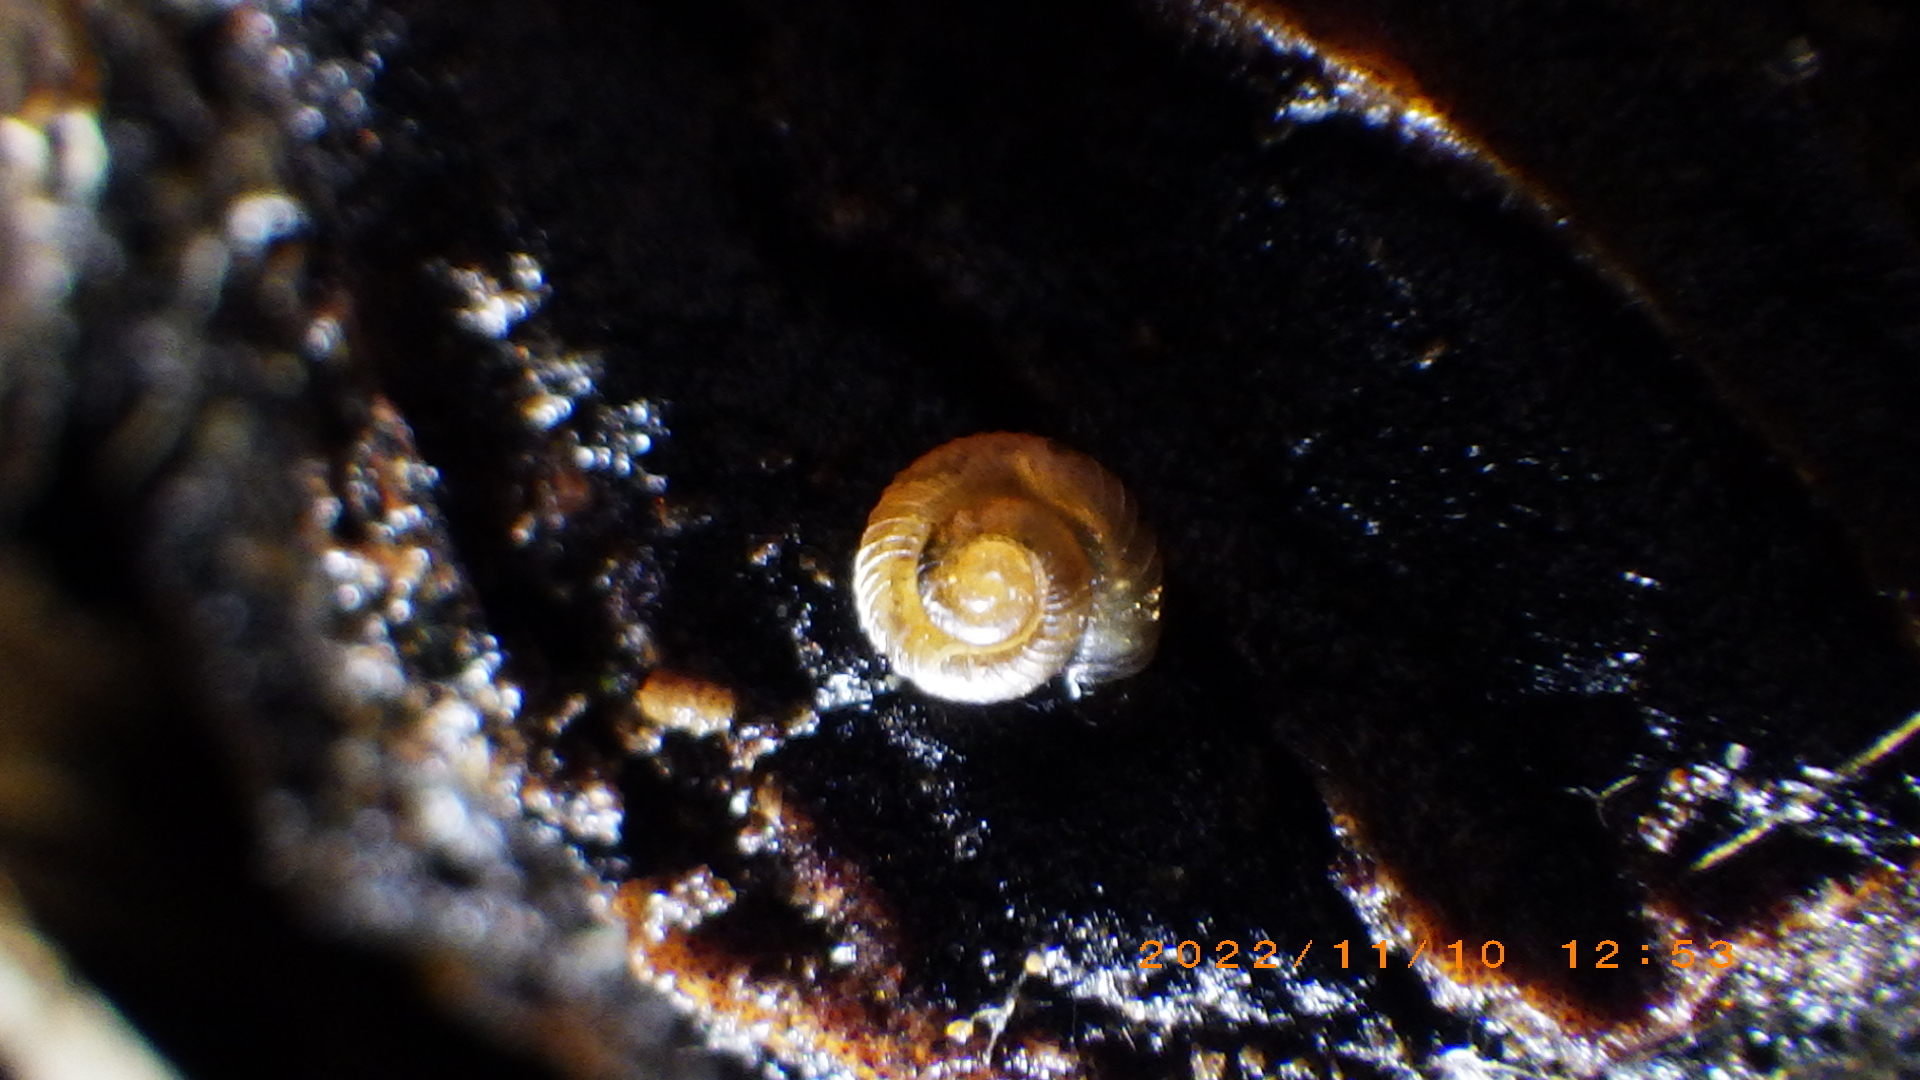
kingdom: Animalia
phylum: Mollusca
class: Gastropoda
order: Stylommatophora
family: Punctidae
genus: Paralaoma
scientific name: Paralaoma servilis
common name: Pinhead spot
